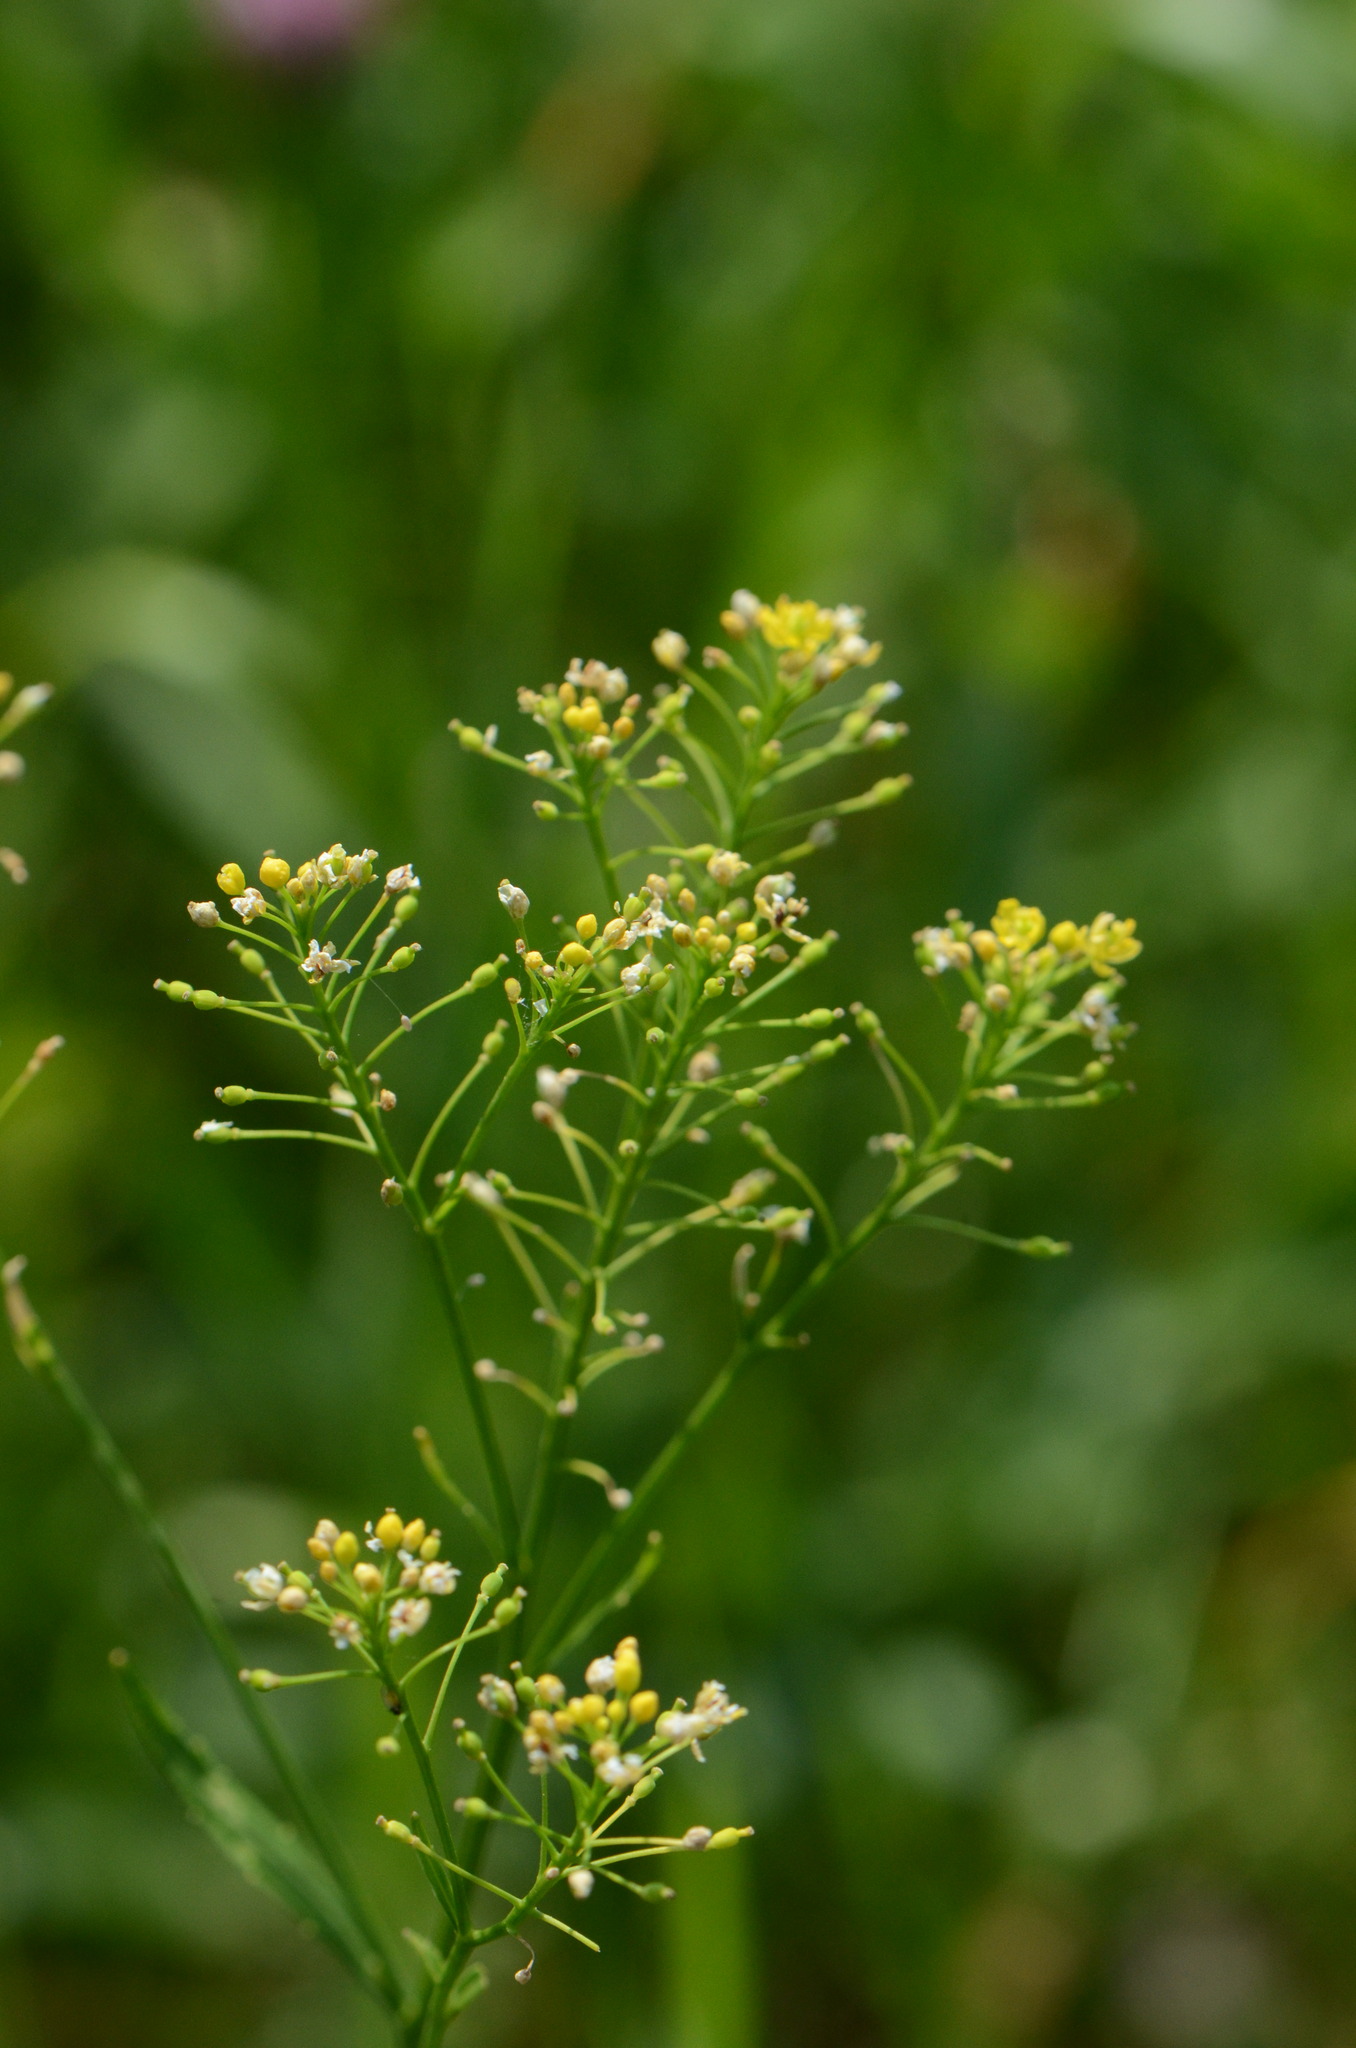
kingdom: Plantae
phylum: Tracheophyta
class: Magnoliopsida
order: Brassicales
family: Brassicaceae
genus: Rorippa
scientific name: Rorippa austriaca
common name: Austrian yellow-cress
